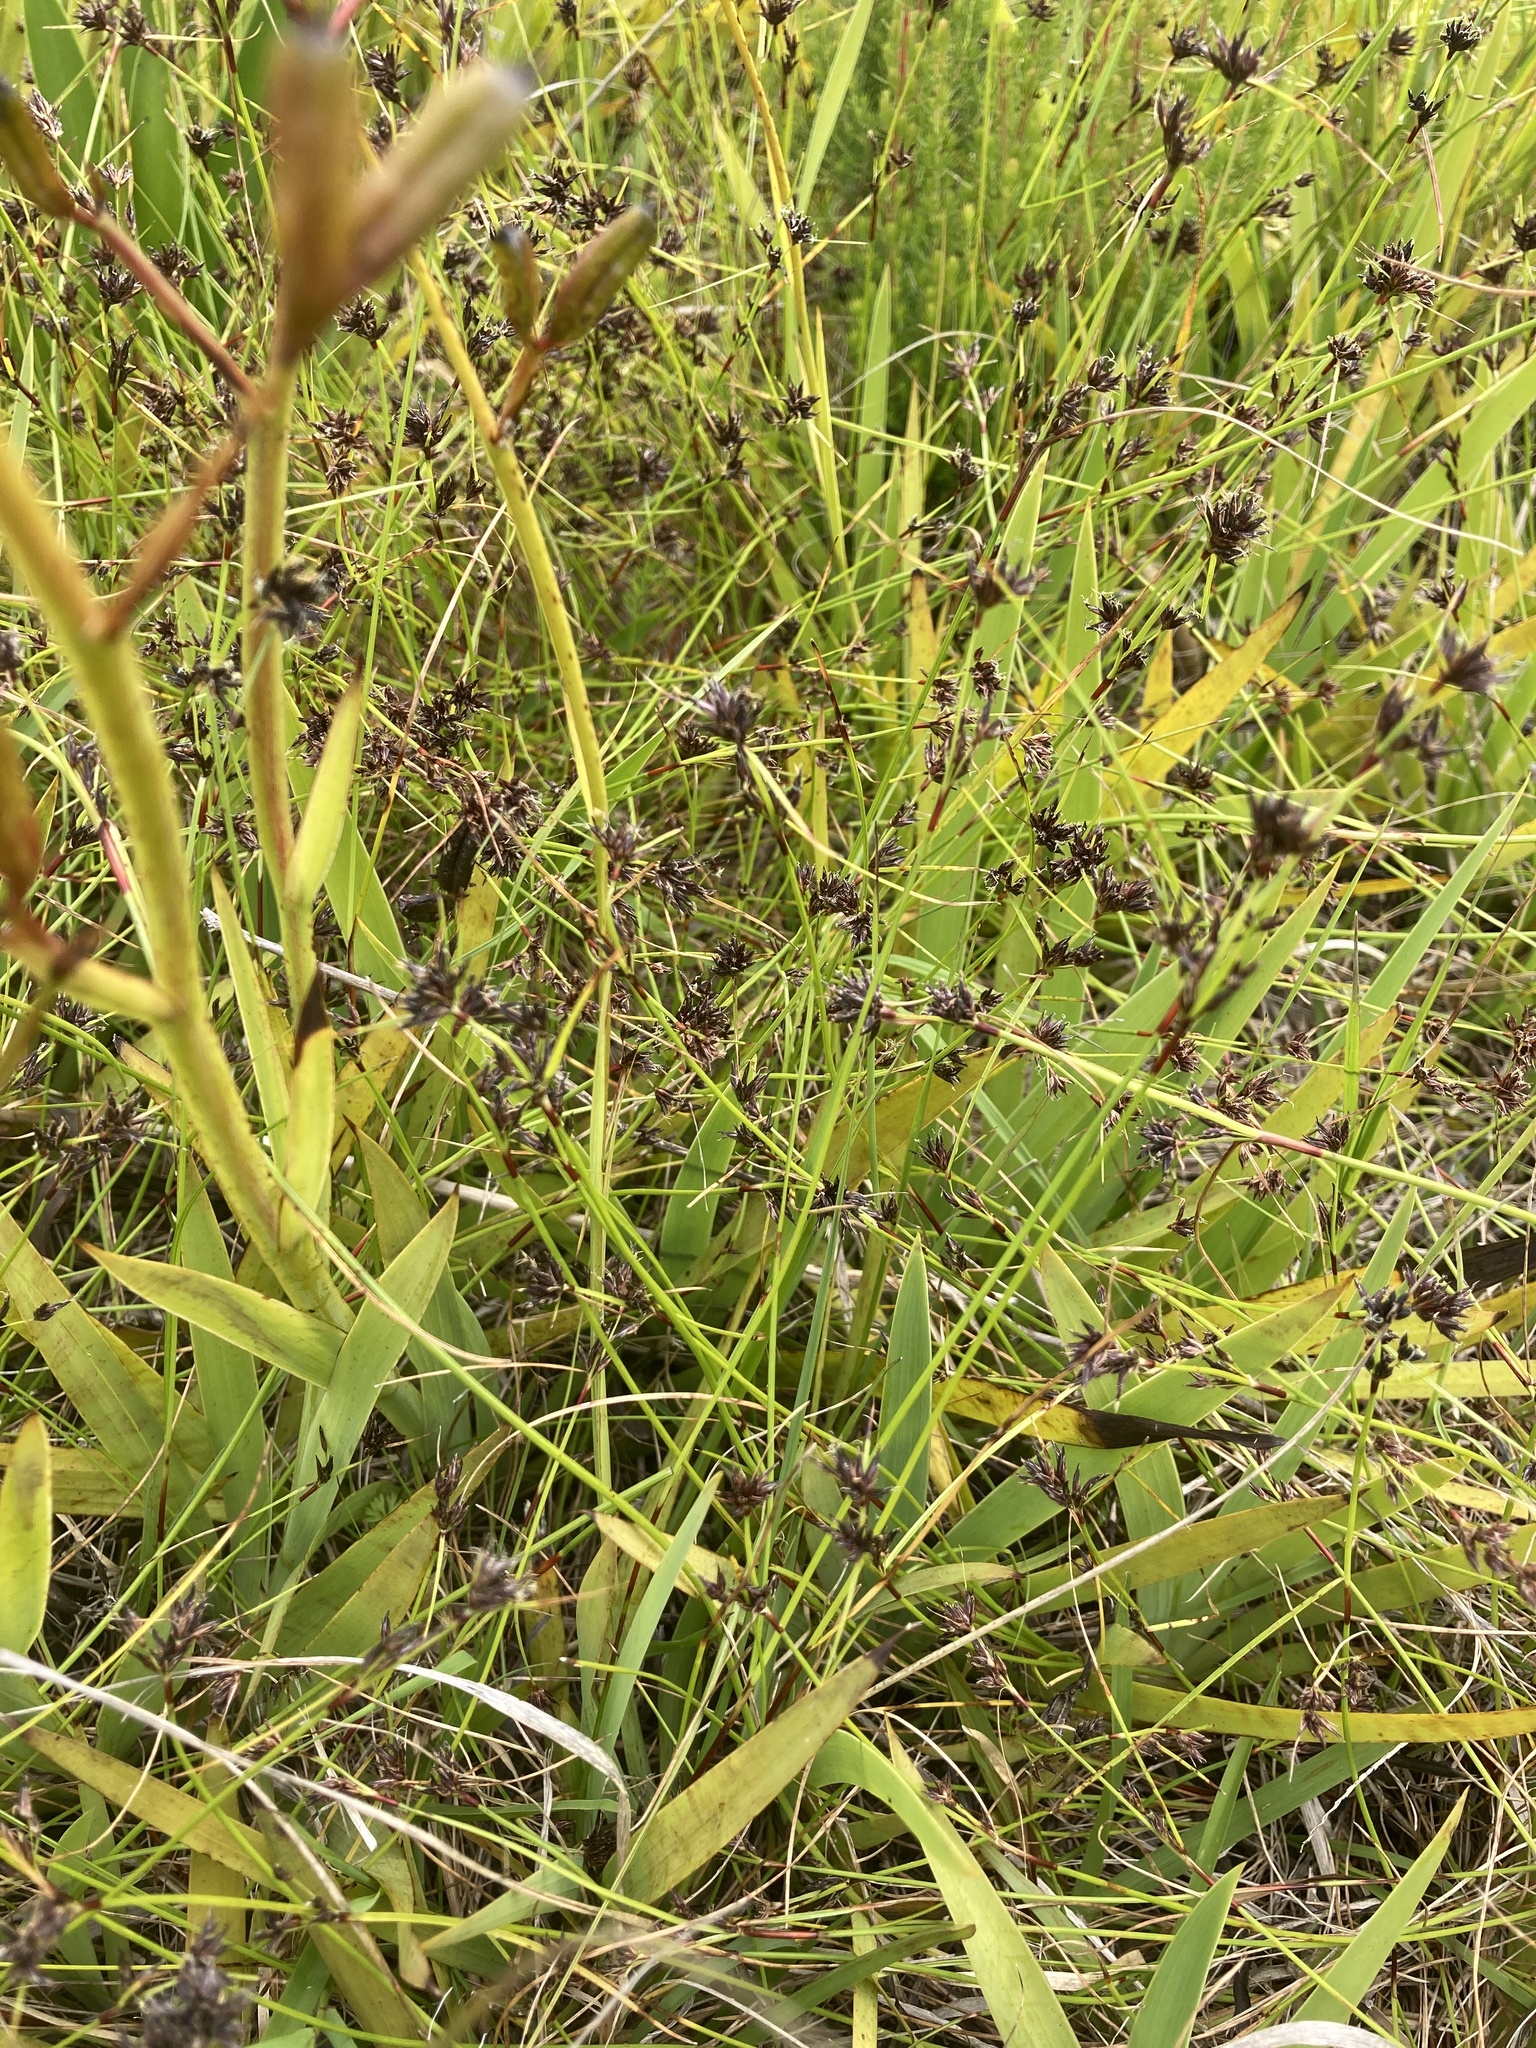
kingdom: Plantae
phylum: Tracheophyta
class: Liliopsida
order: Poales
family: Cyperaceae
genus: Schoenus
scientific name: Schoenus apogon
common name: Smooth bogrush
